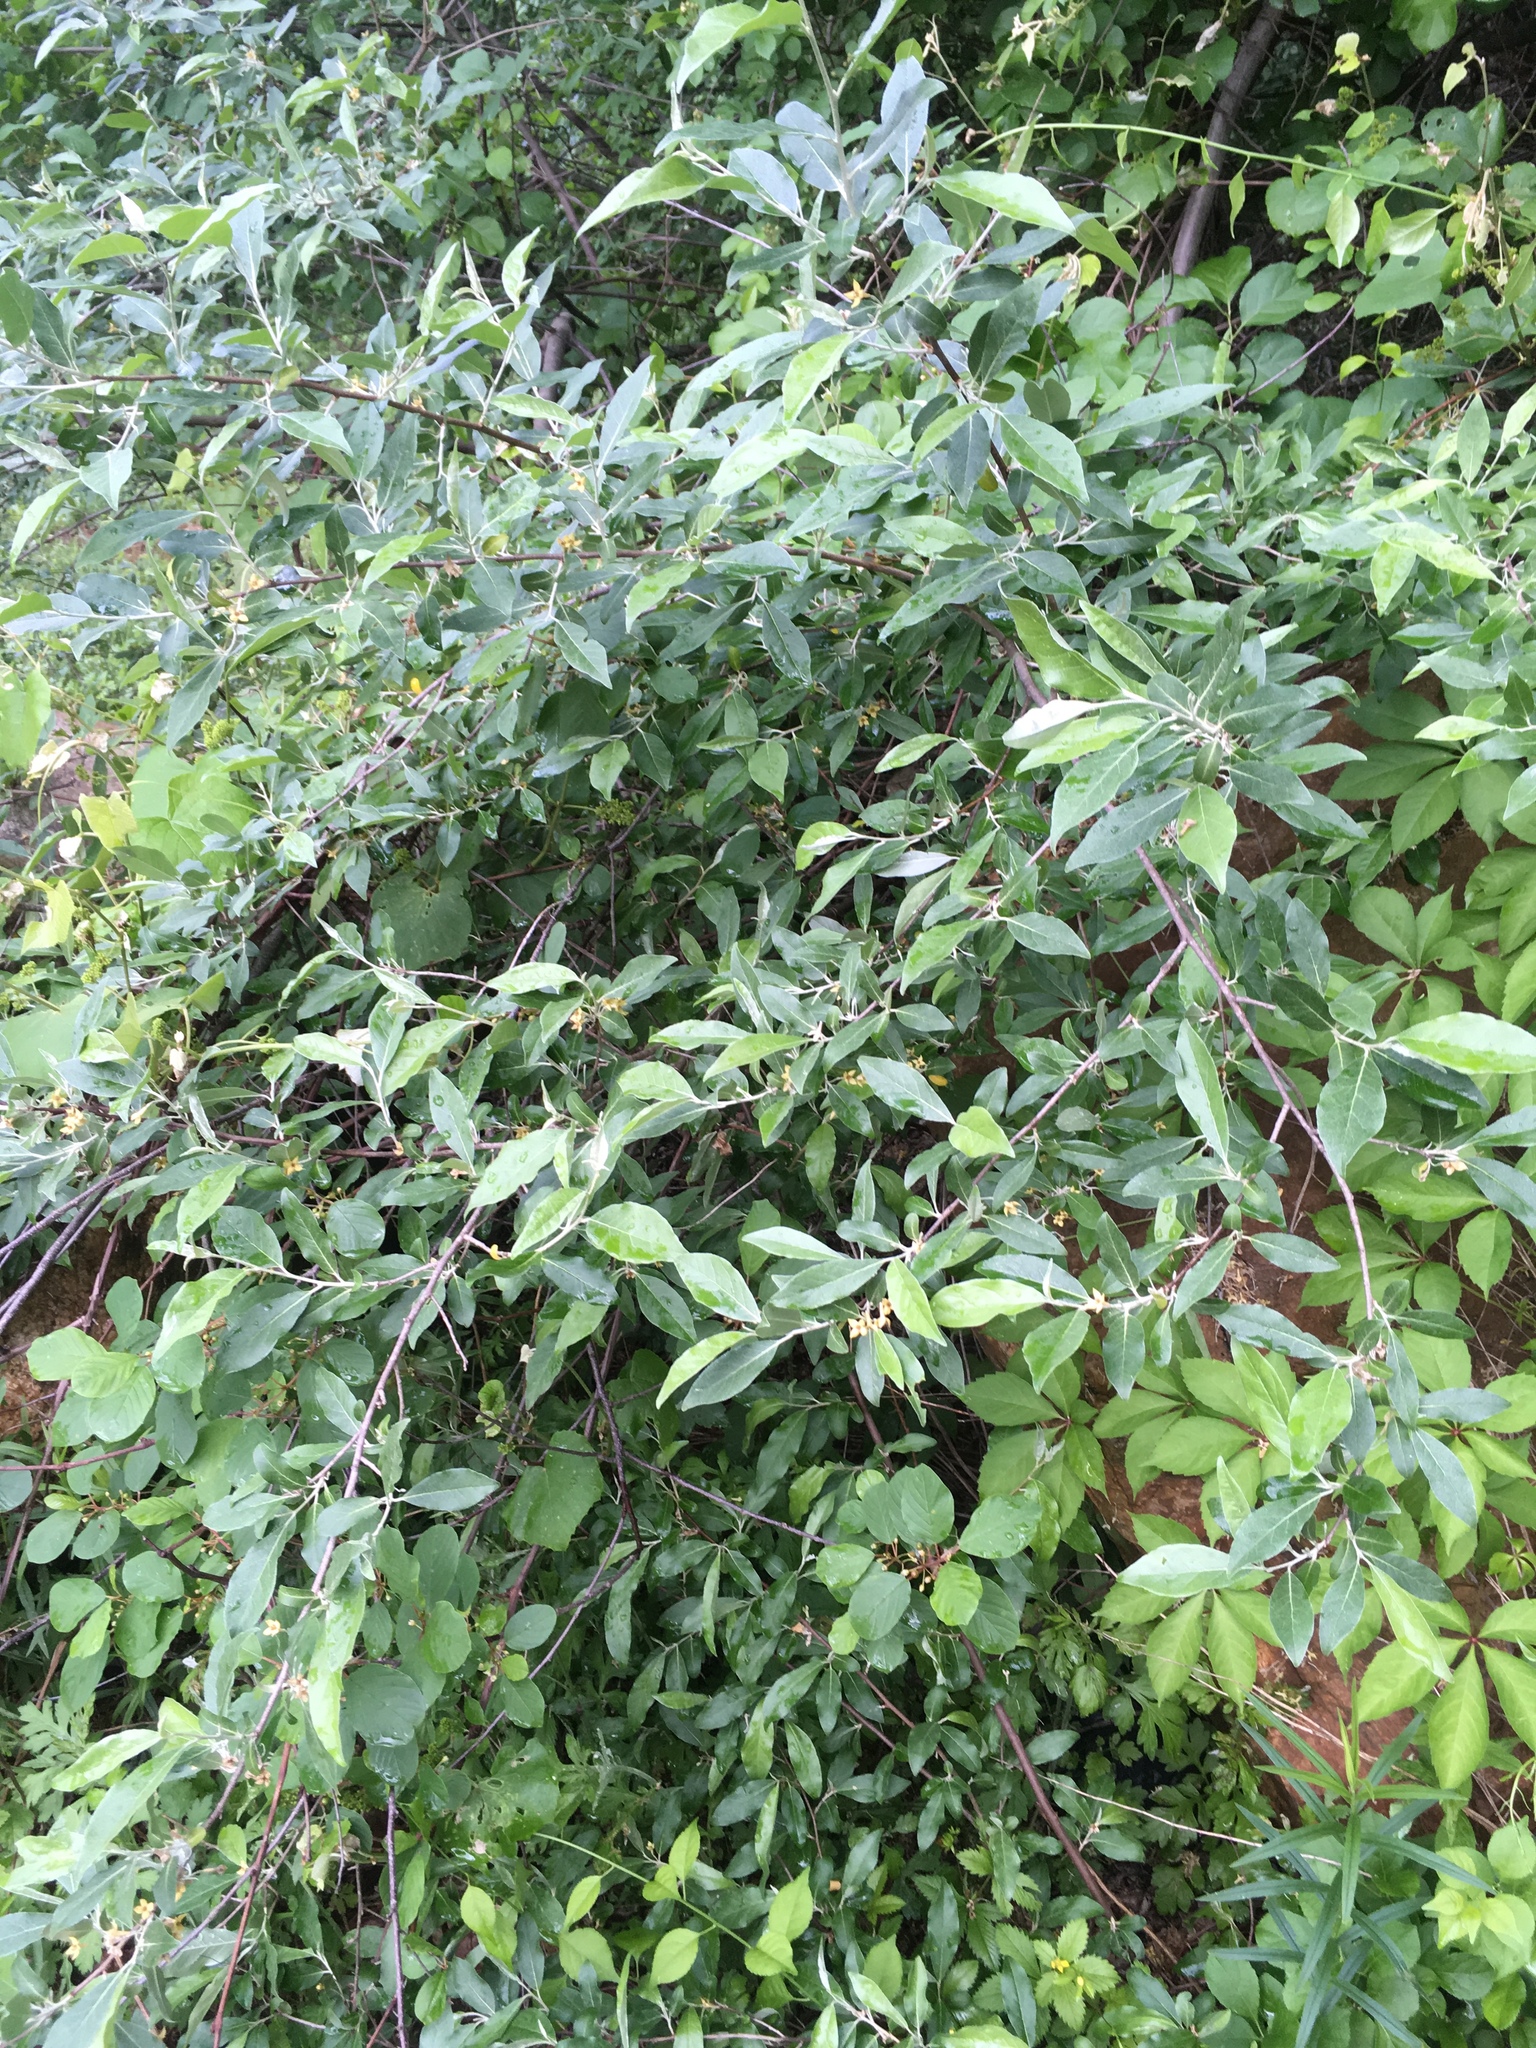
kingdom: Plantae
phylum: Tracheophyta
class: Magnoliopsida
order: Rosales
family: Elaeagnaceae
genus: Elaeagnus
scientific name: Elaeagnus umbellata
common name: Autumn olive
